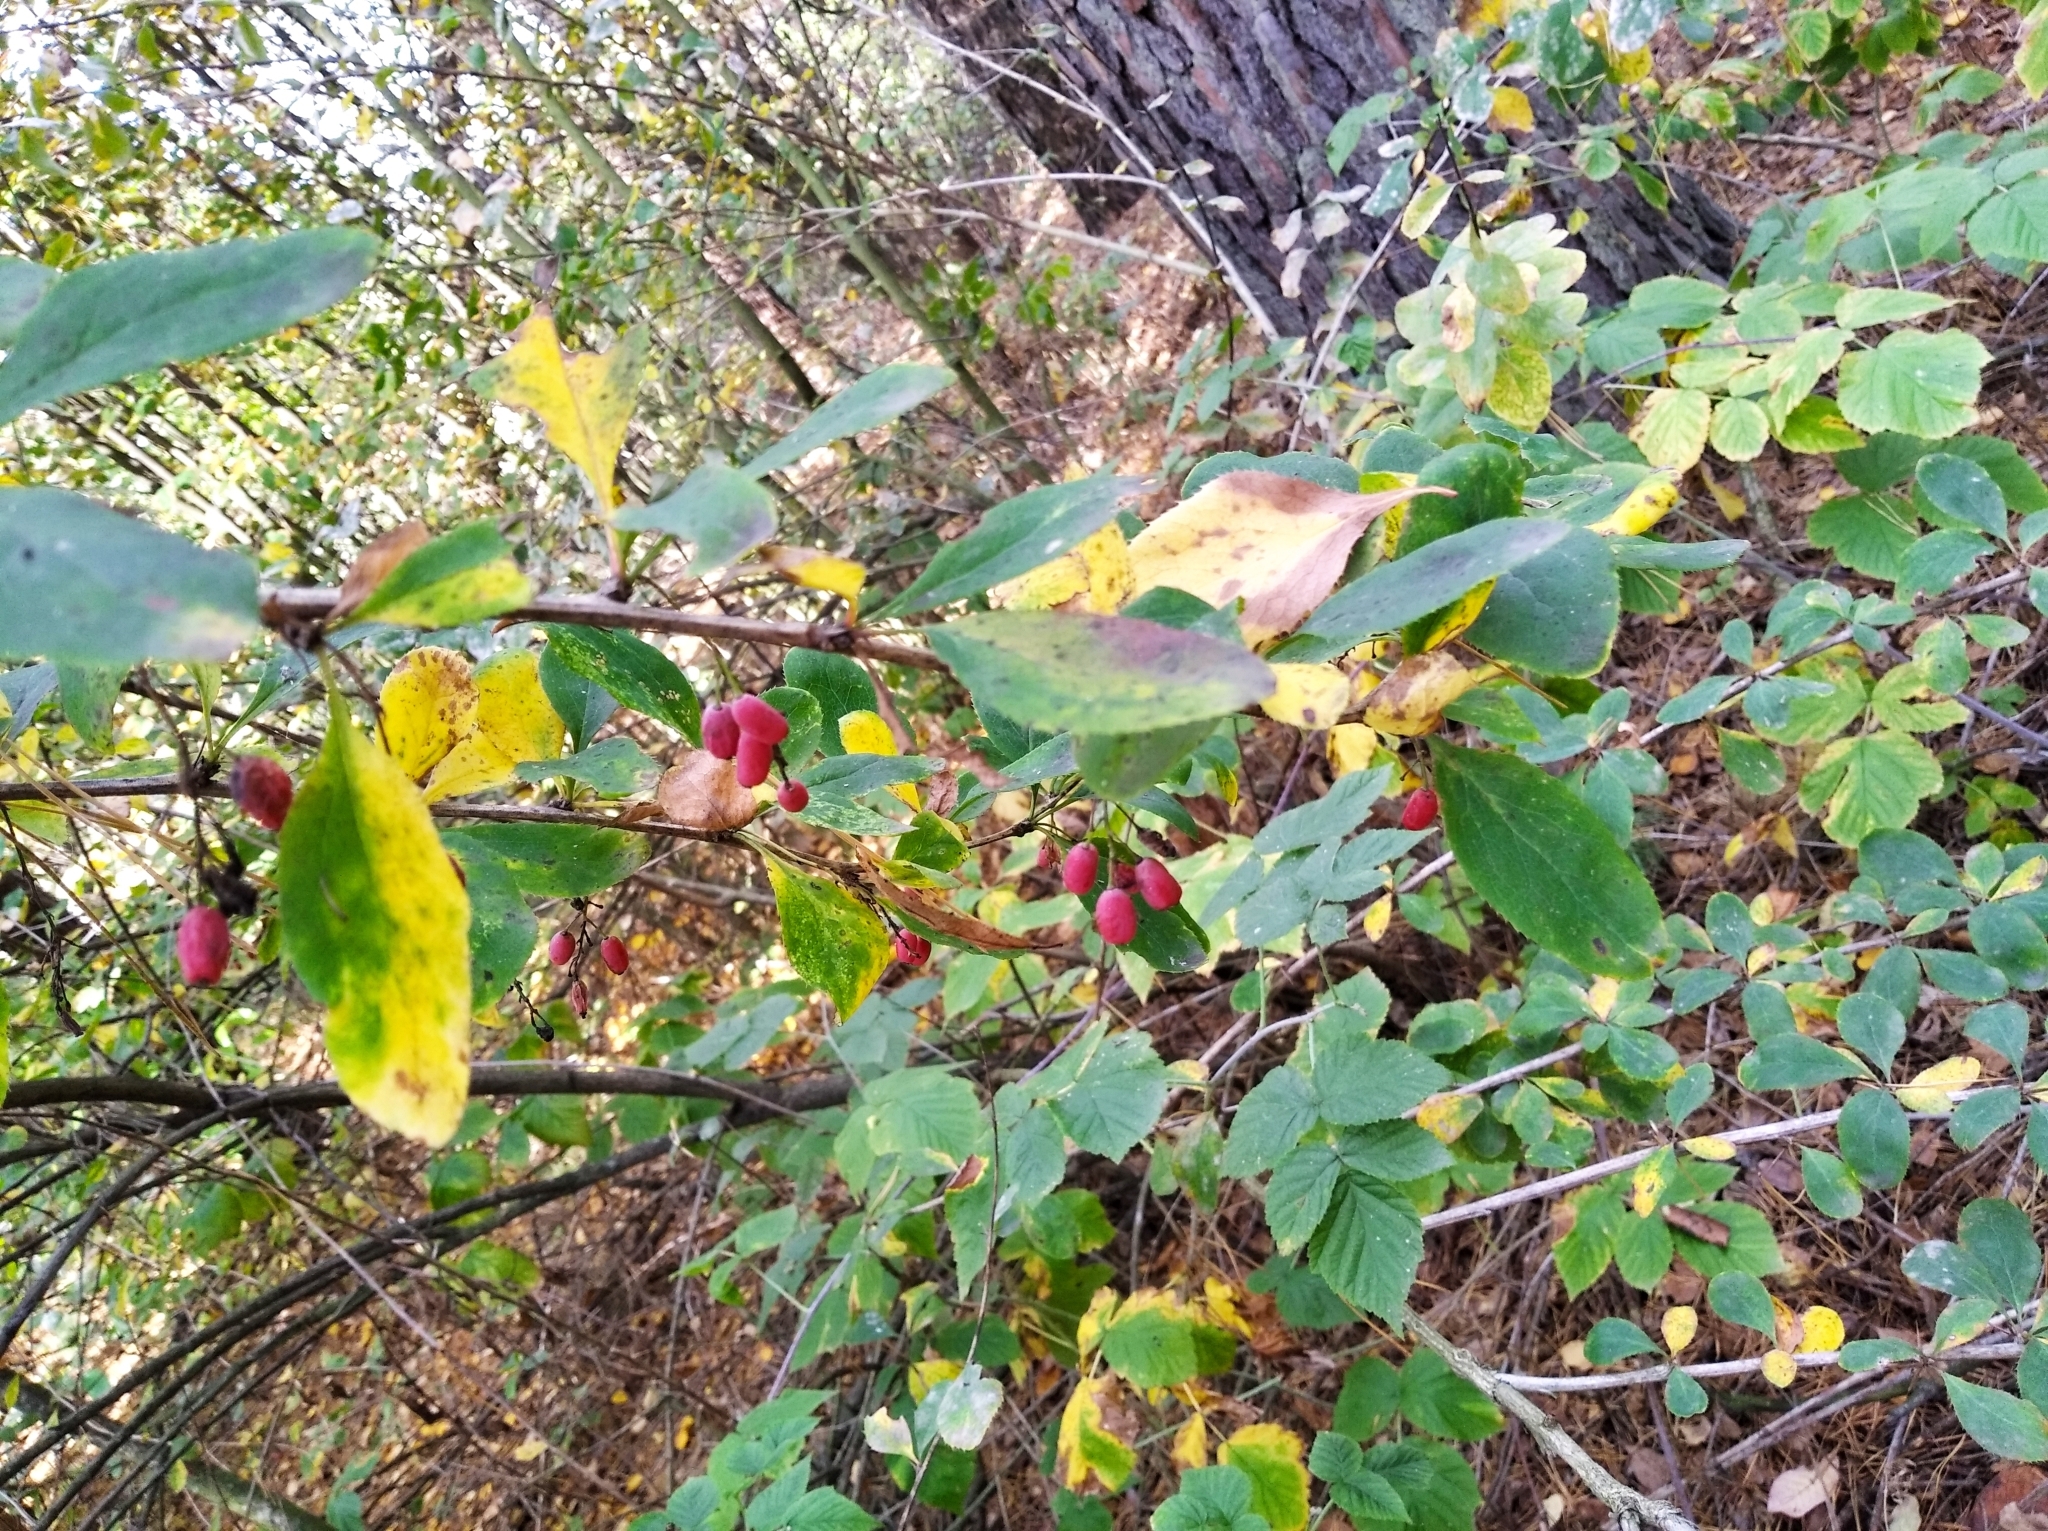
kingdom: Plantae
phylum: Tracheophyta
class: Magnoliopsida
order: Ranunculales
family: Berberidaceae
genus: Berberis
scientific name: Berberis vulgaris
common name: Barberry
